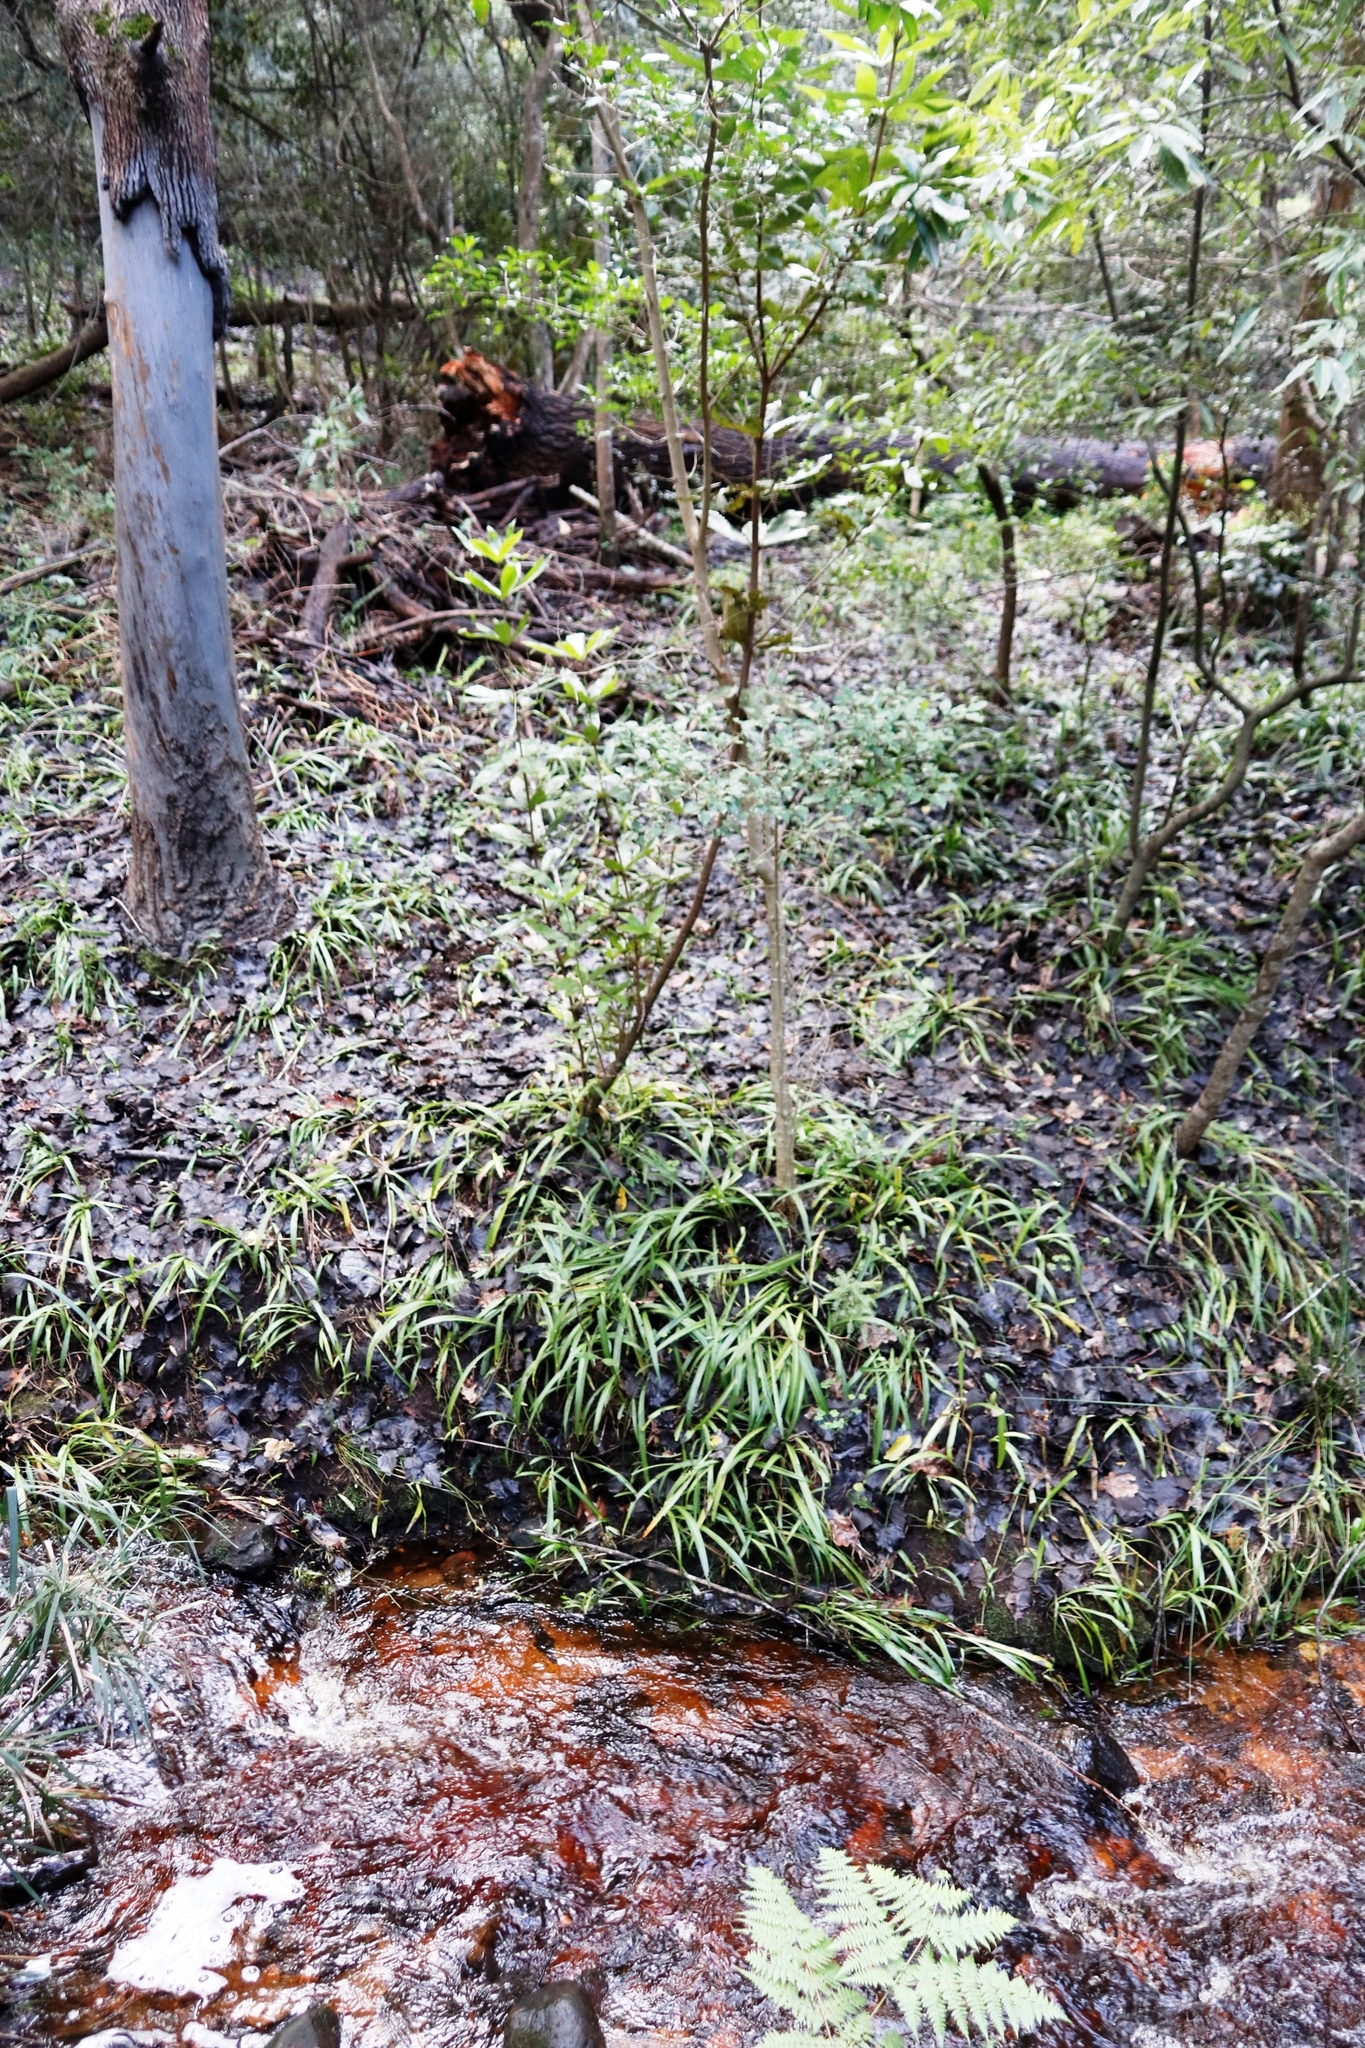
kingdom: Plantae
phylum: Tracheophyta
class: Magnoliopsida
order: Proteales
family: Proteaceae
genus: Brabejum
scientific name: Brabejum stellatifolium
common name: Wild almond
